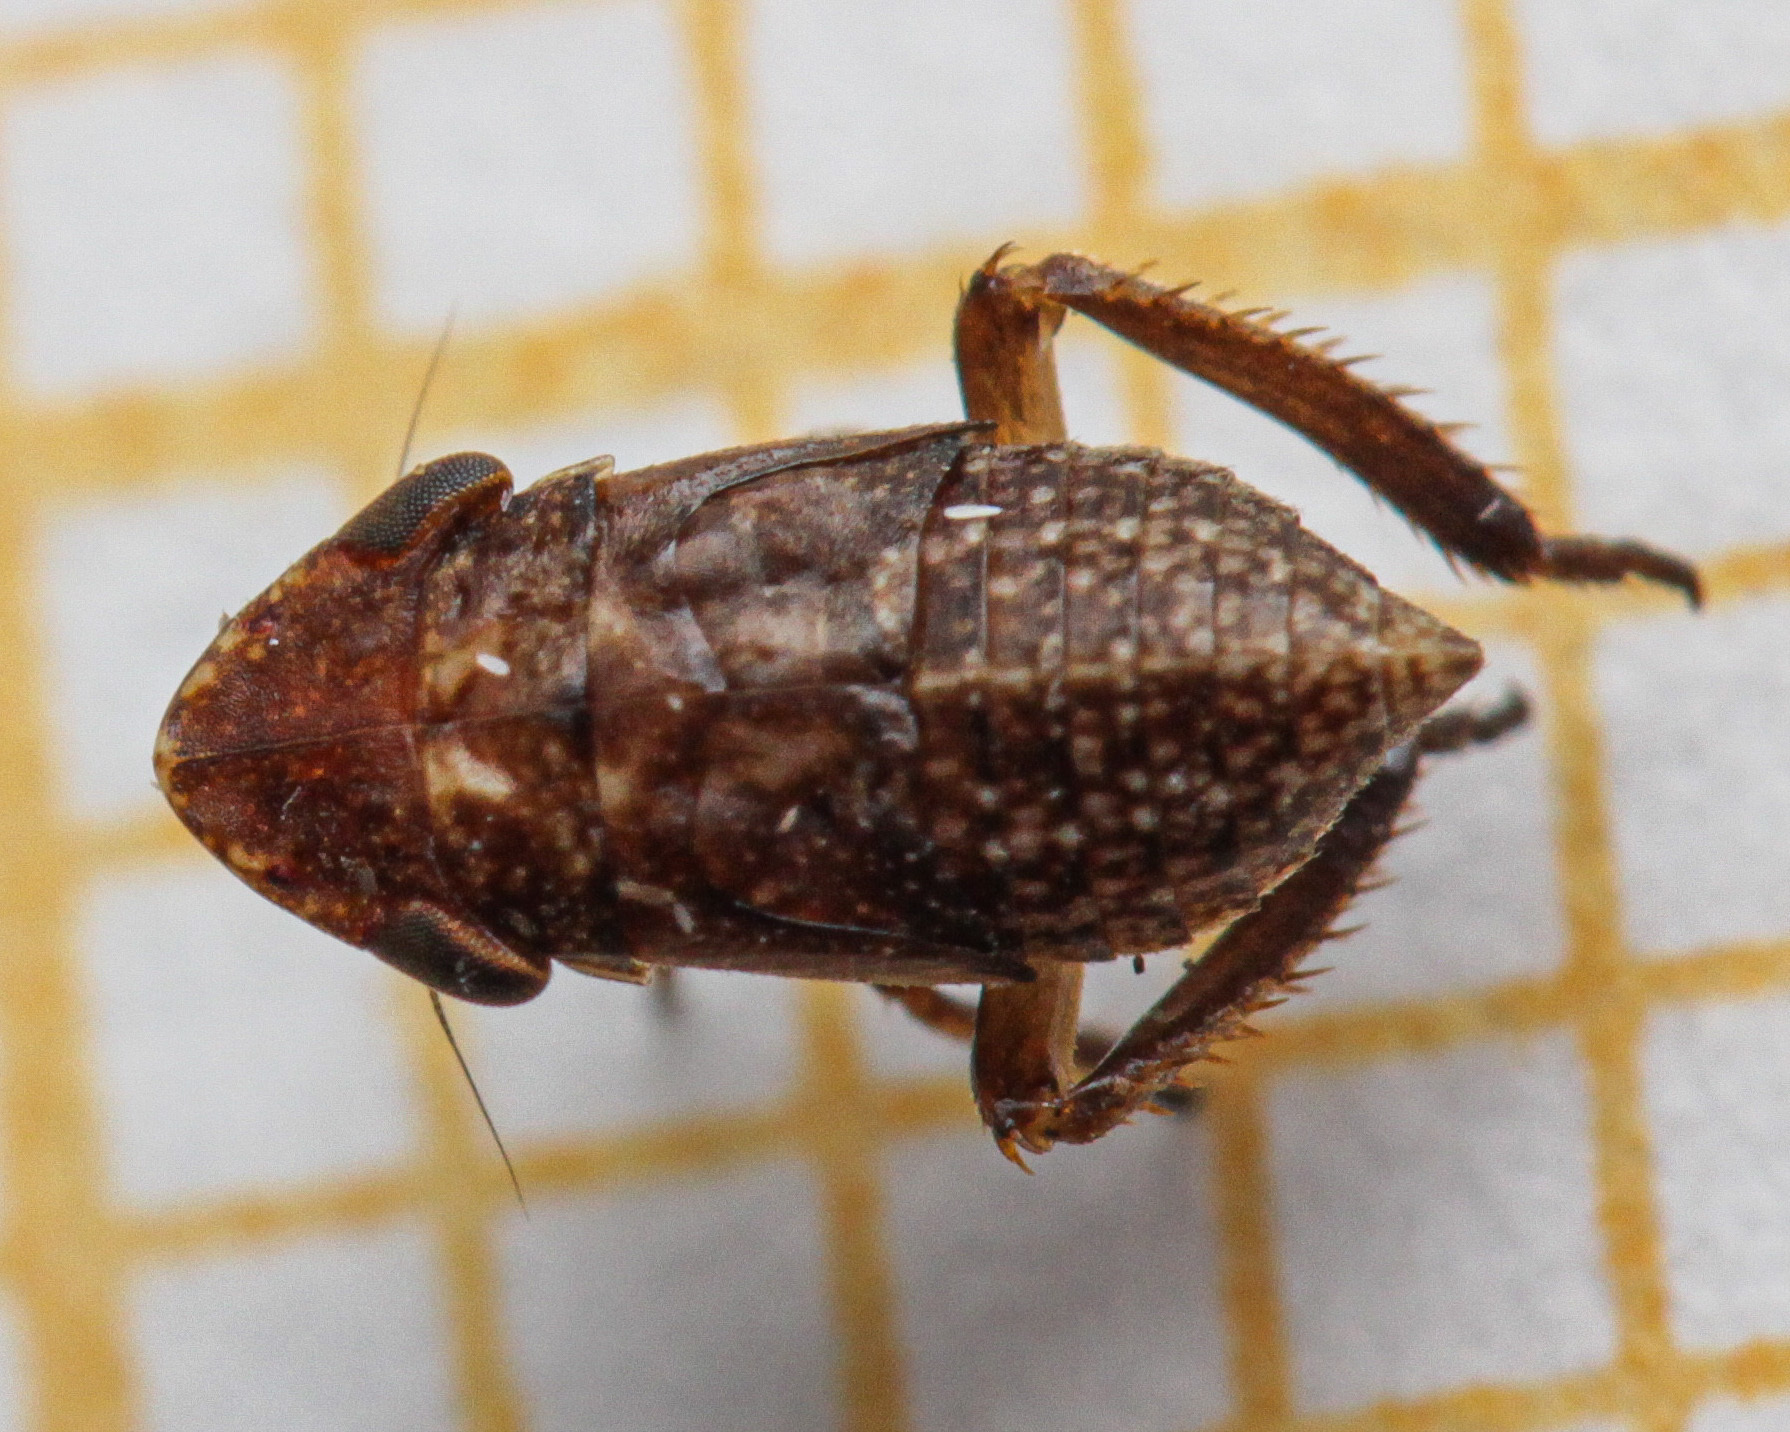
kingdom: Animalia
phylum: Arthropoda
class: Insecta
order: Hemiptera
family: Cicadellidae
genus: Planaphrodes
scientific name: Planaphrodes trifasciata
